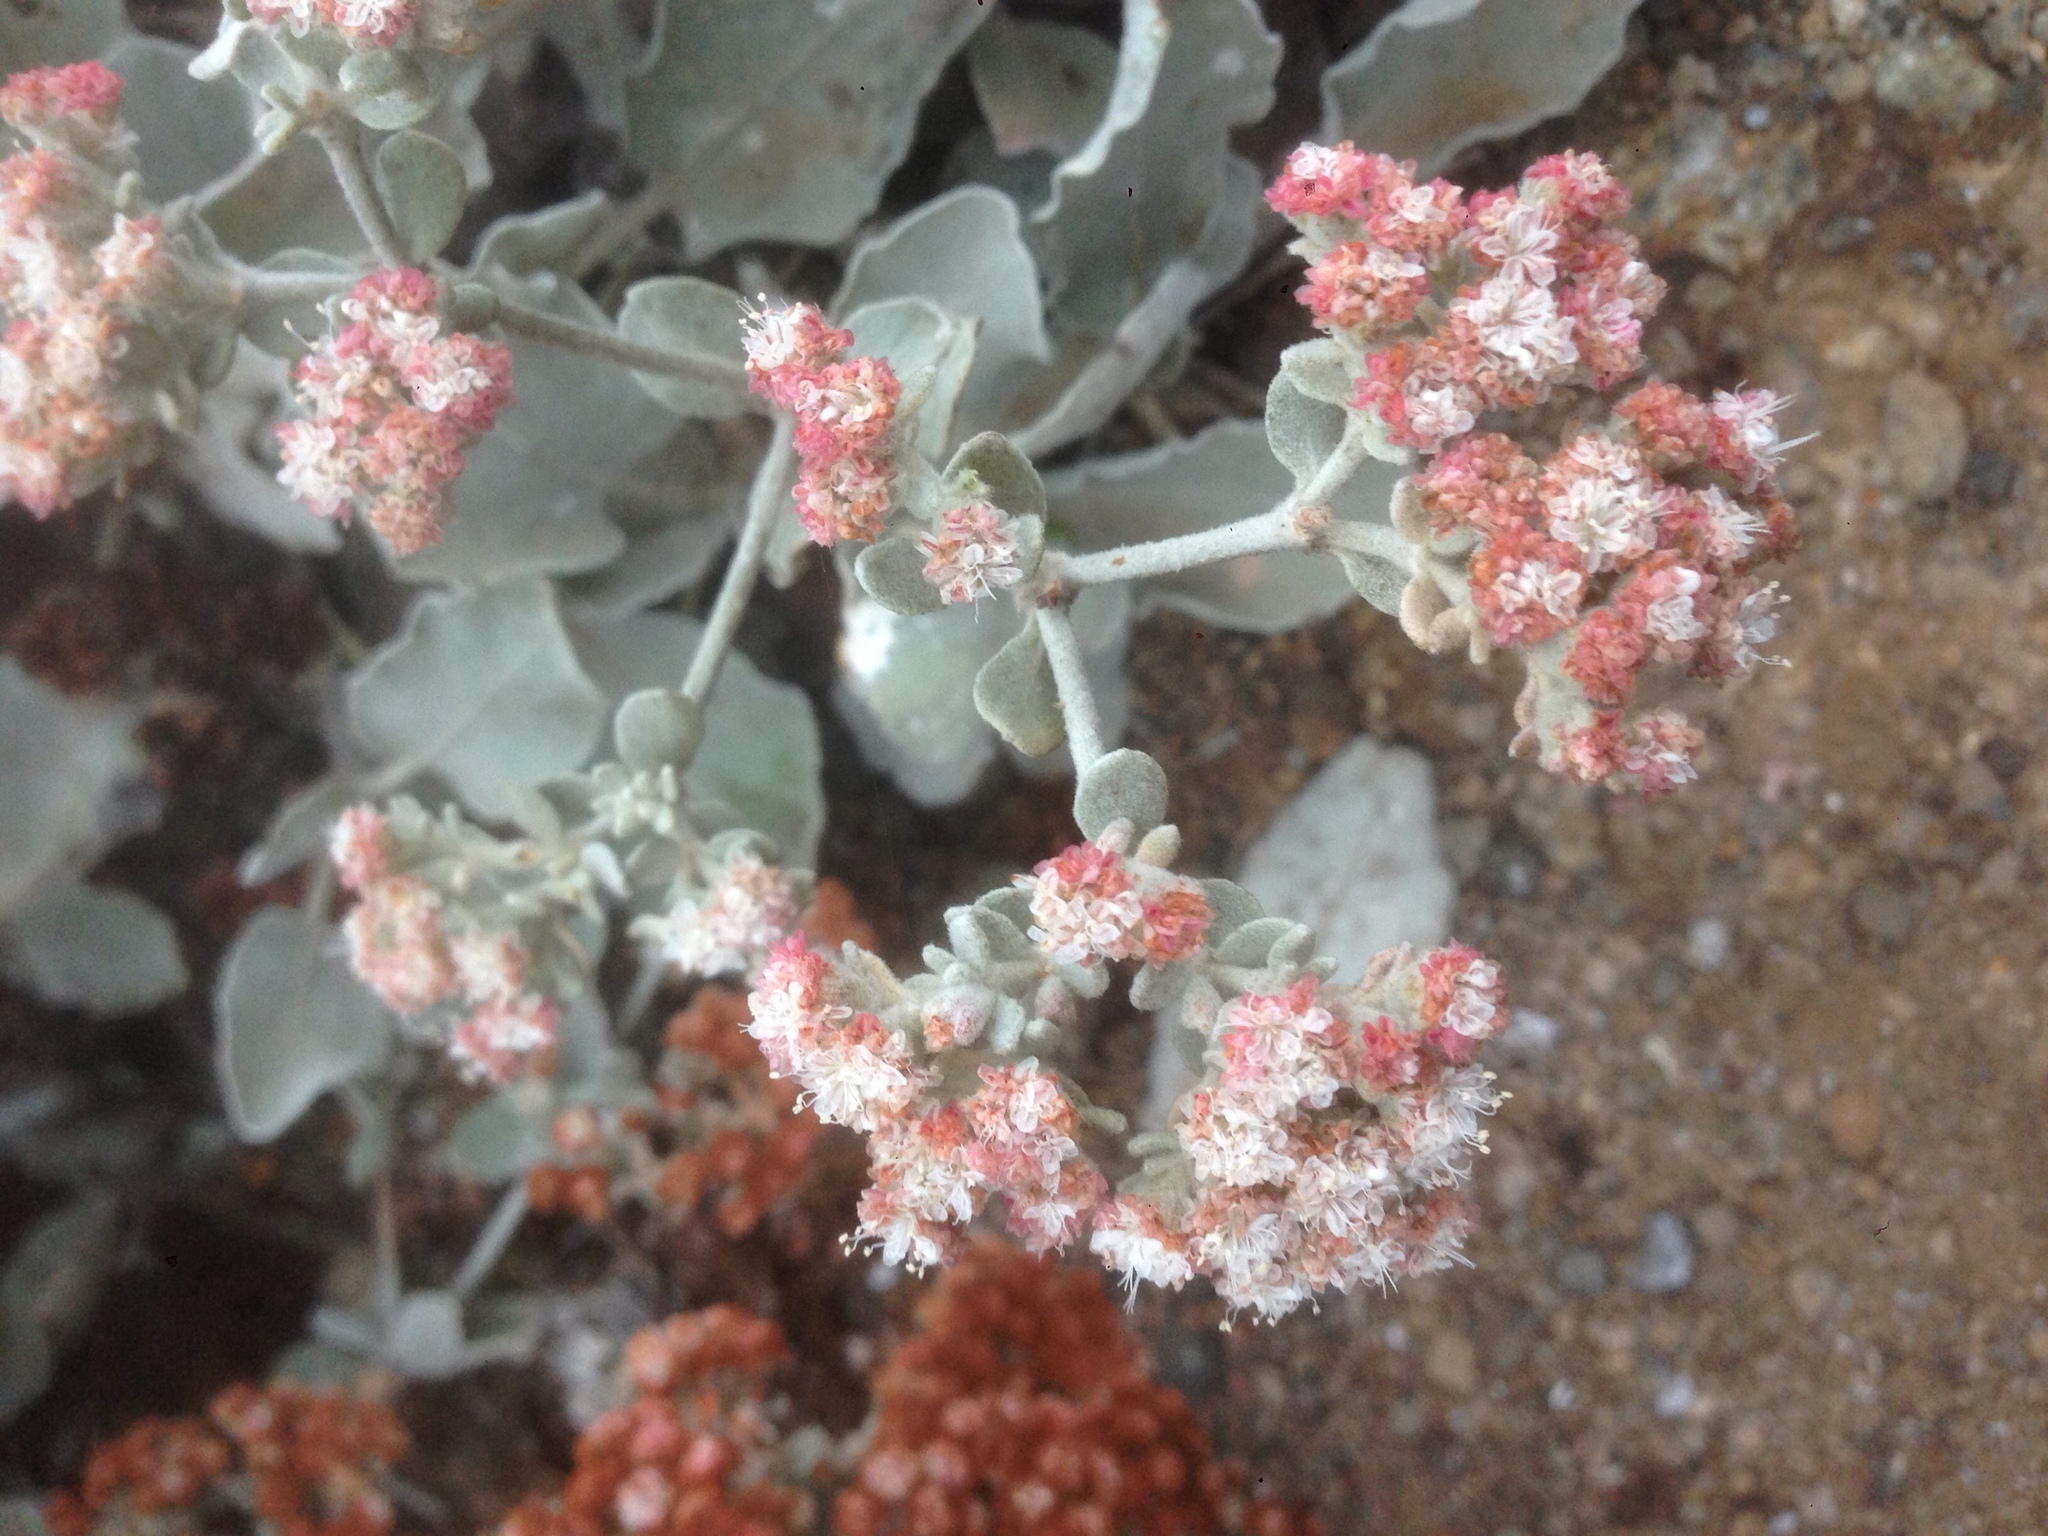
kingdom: Plantae
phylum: Tracheophyta
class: Magnoliopsida
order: Caryophyllales
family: Polygonaceae
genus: Eriogonum
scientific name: Eriogonum giganteum
